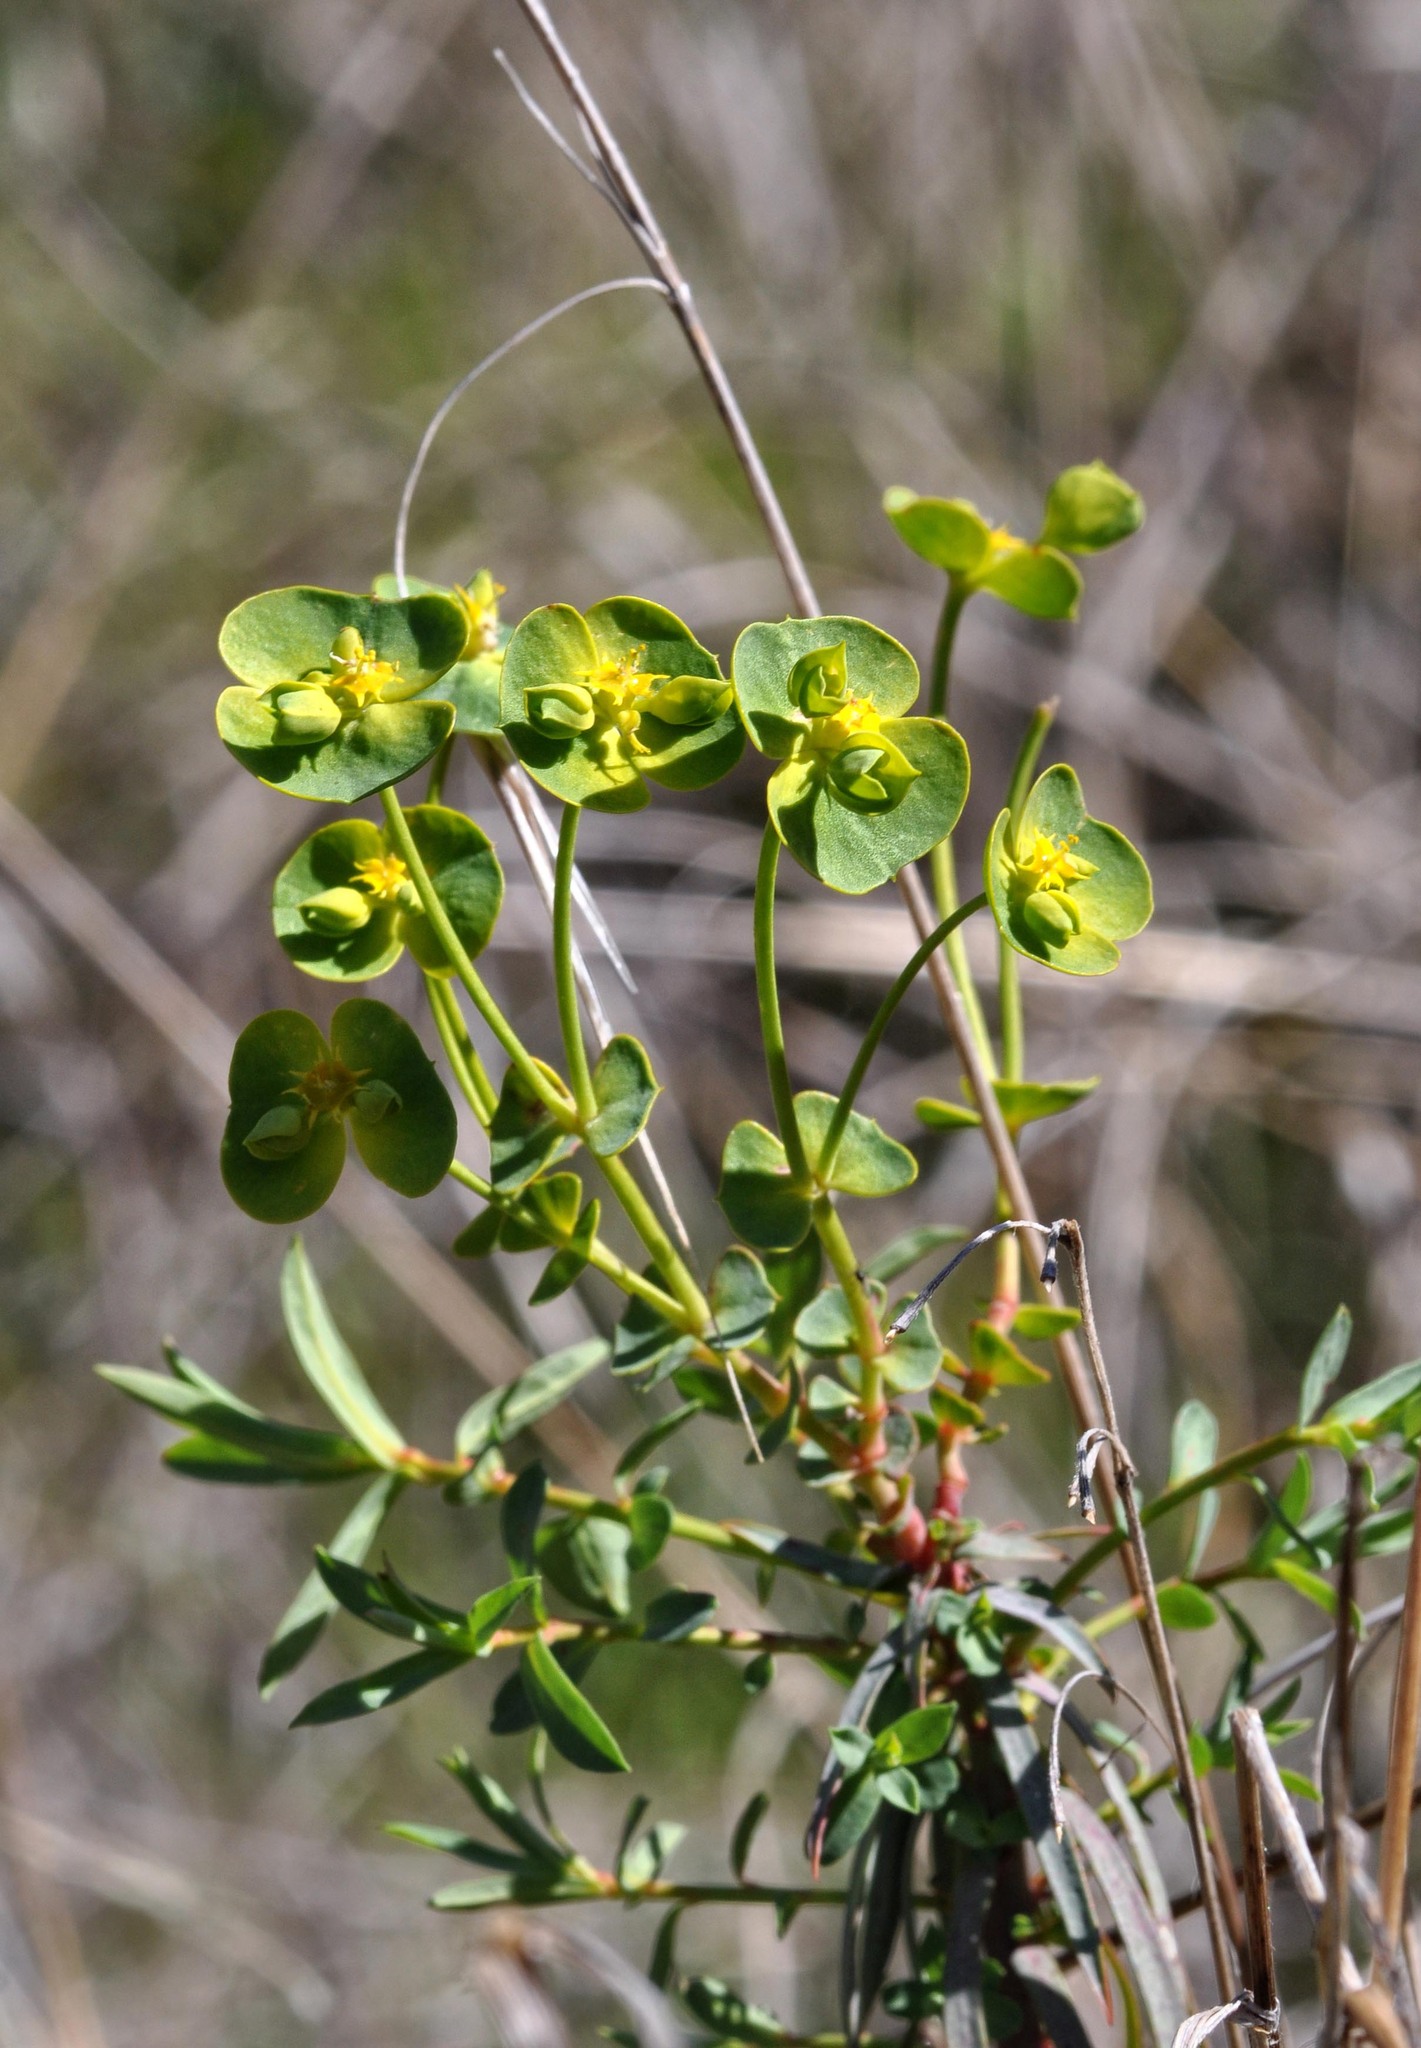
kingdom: Plantae
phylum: Tracheophyta
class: Magnoliopsida
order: Malpighiales
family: Euphorbiaceae
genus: Euphorbia
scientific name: Euphorbia segetalis
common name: Corn spurge
